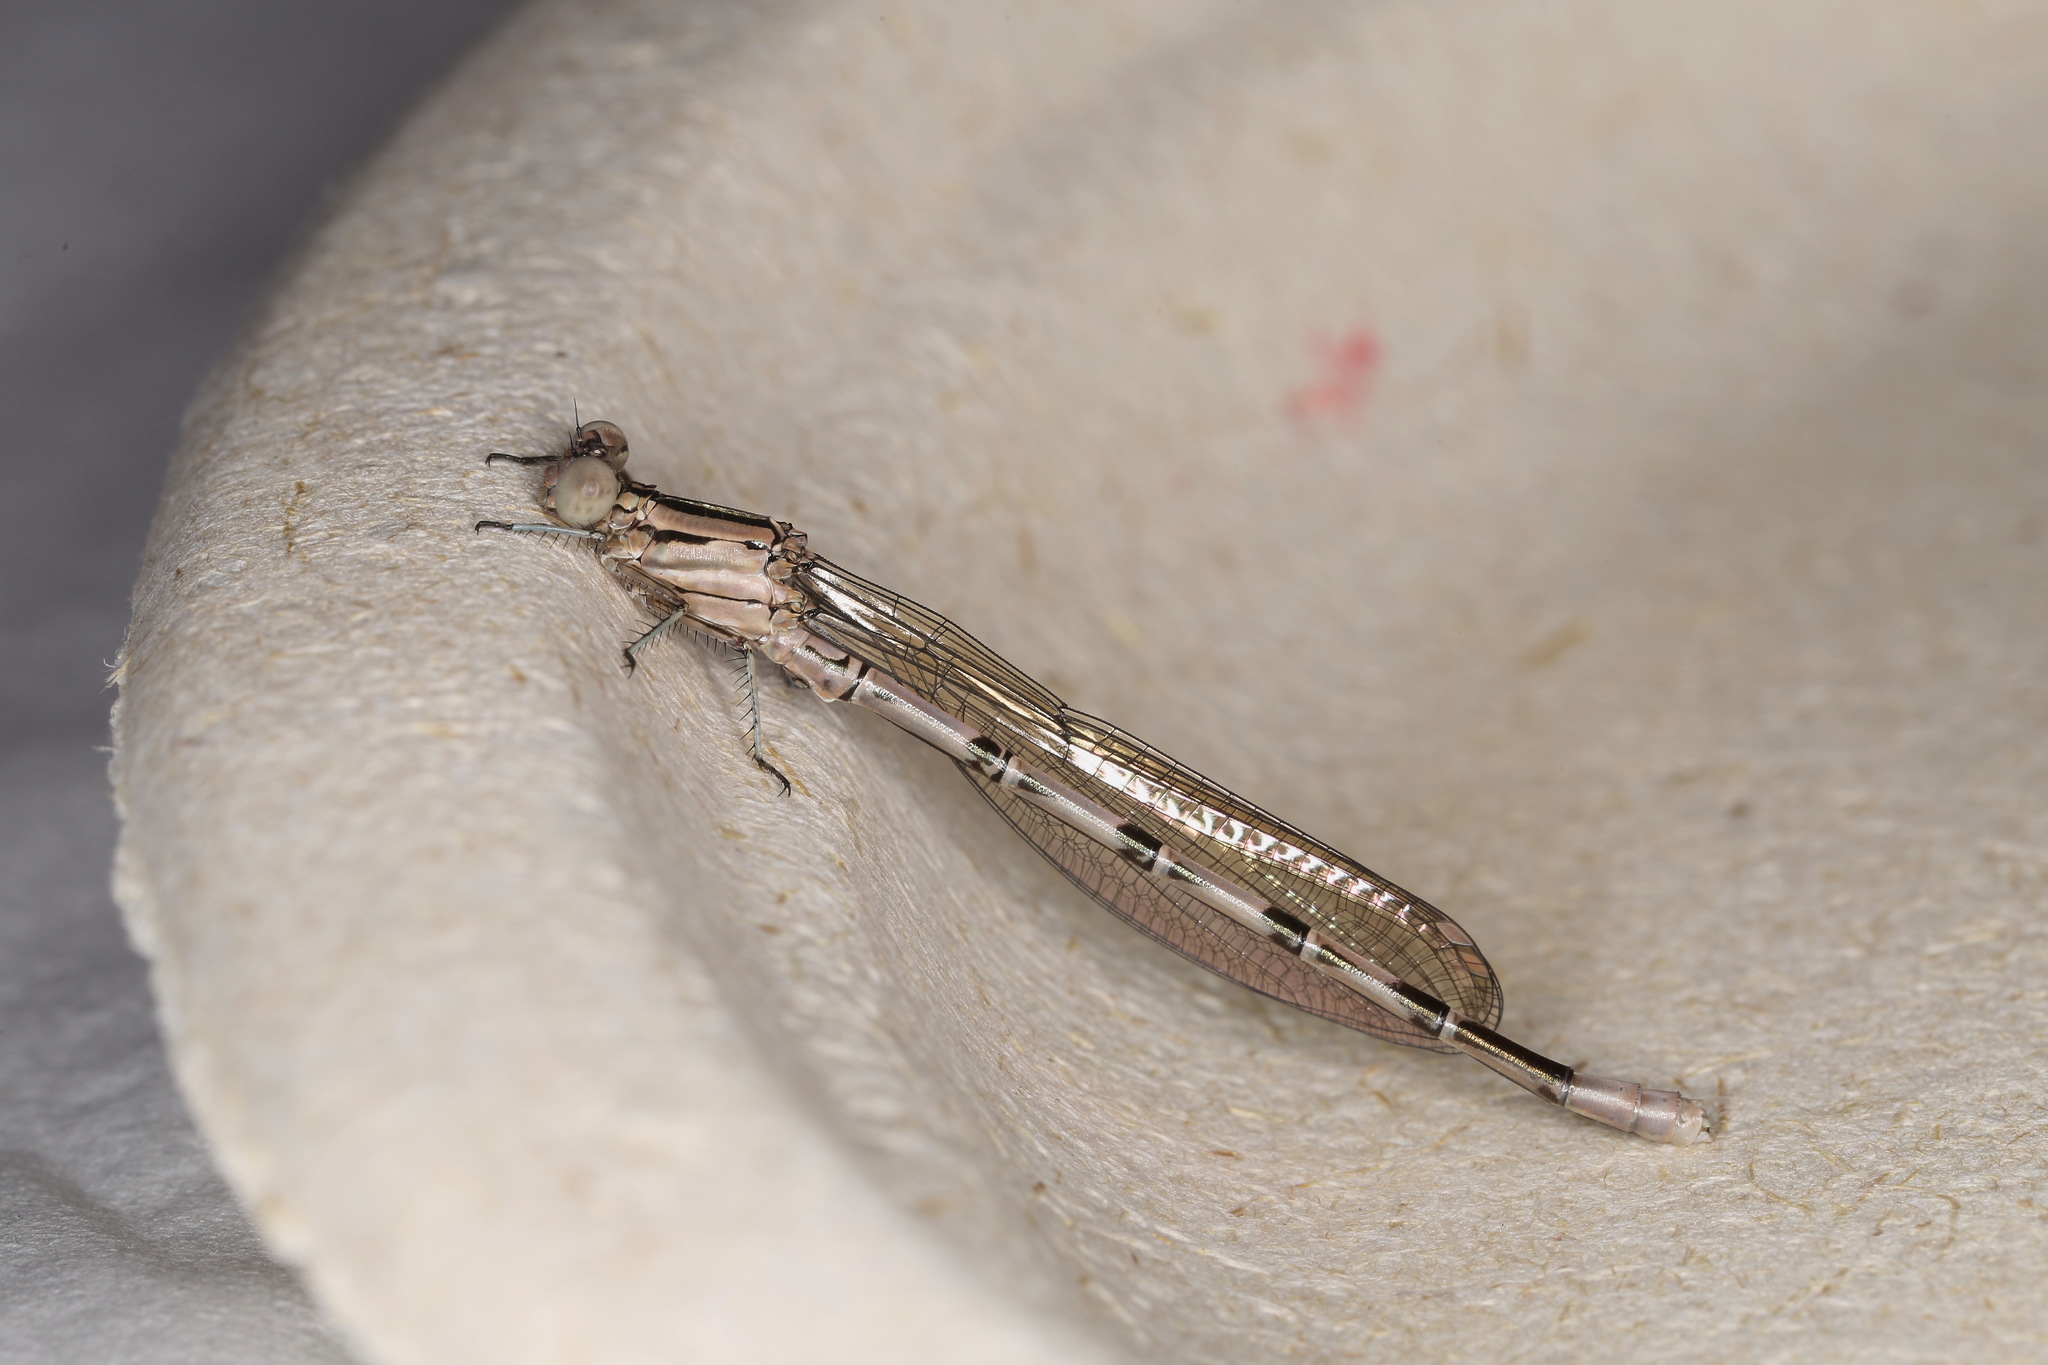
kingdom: Animalia
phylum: Arthropoda
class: Insecta
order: Odonata
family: Coenagrionidae
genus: Argia
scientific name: Argia vivida
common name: Vivid dancer
